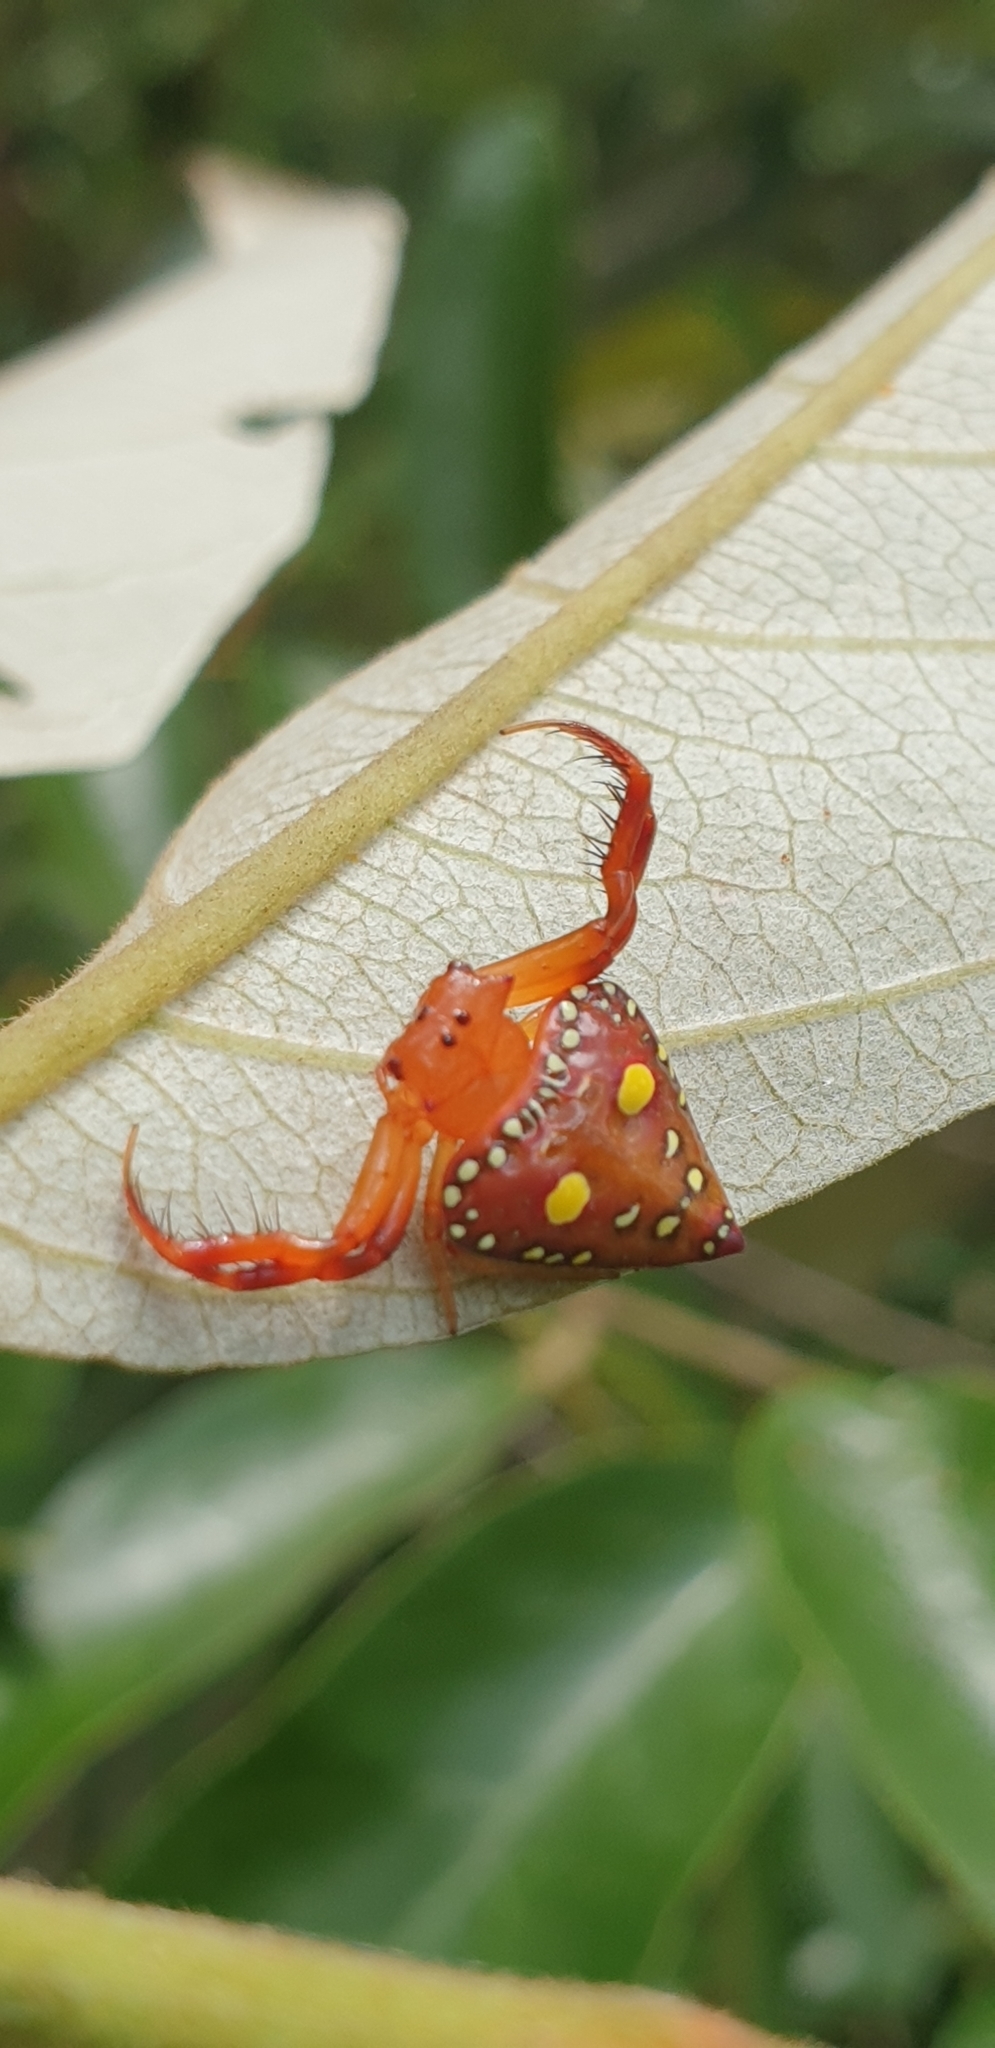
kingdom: Animalia
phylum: Arthropoda
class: Arachnida
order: Araneae
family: Arkyidae
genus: Arkys
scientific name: Arkys lancearius
